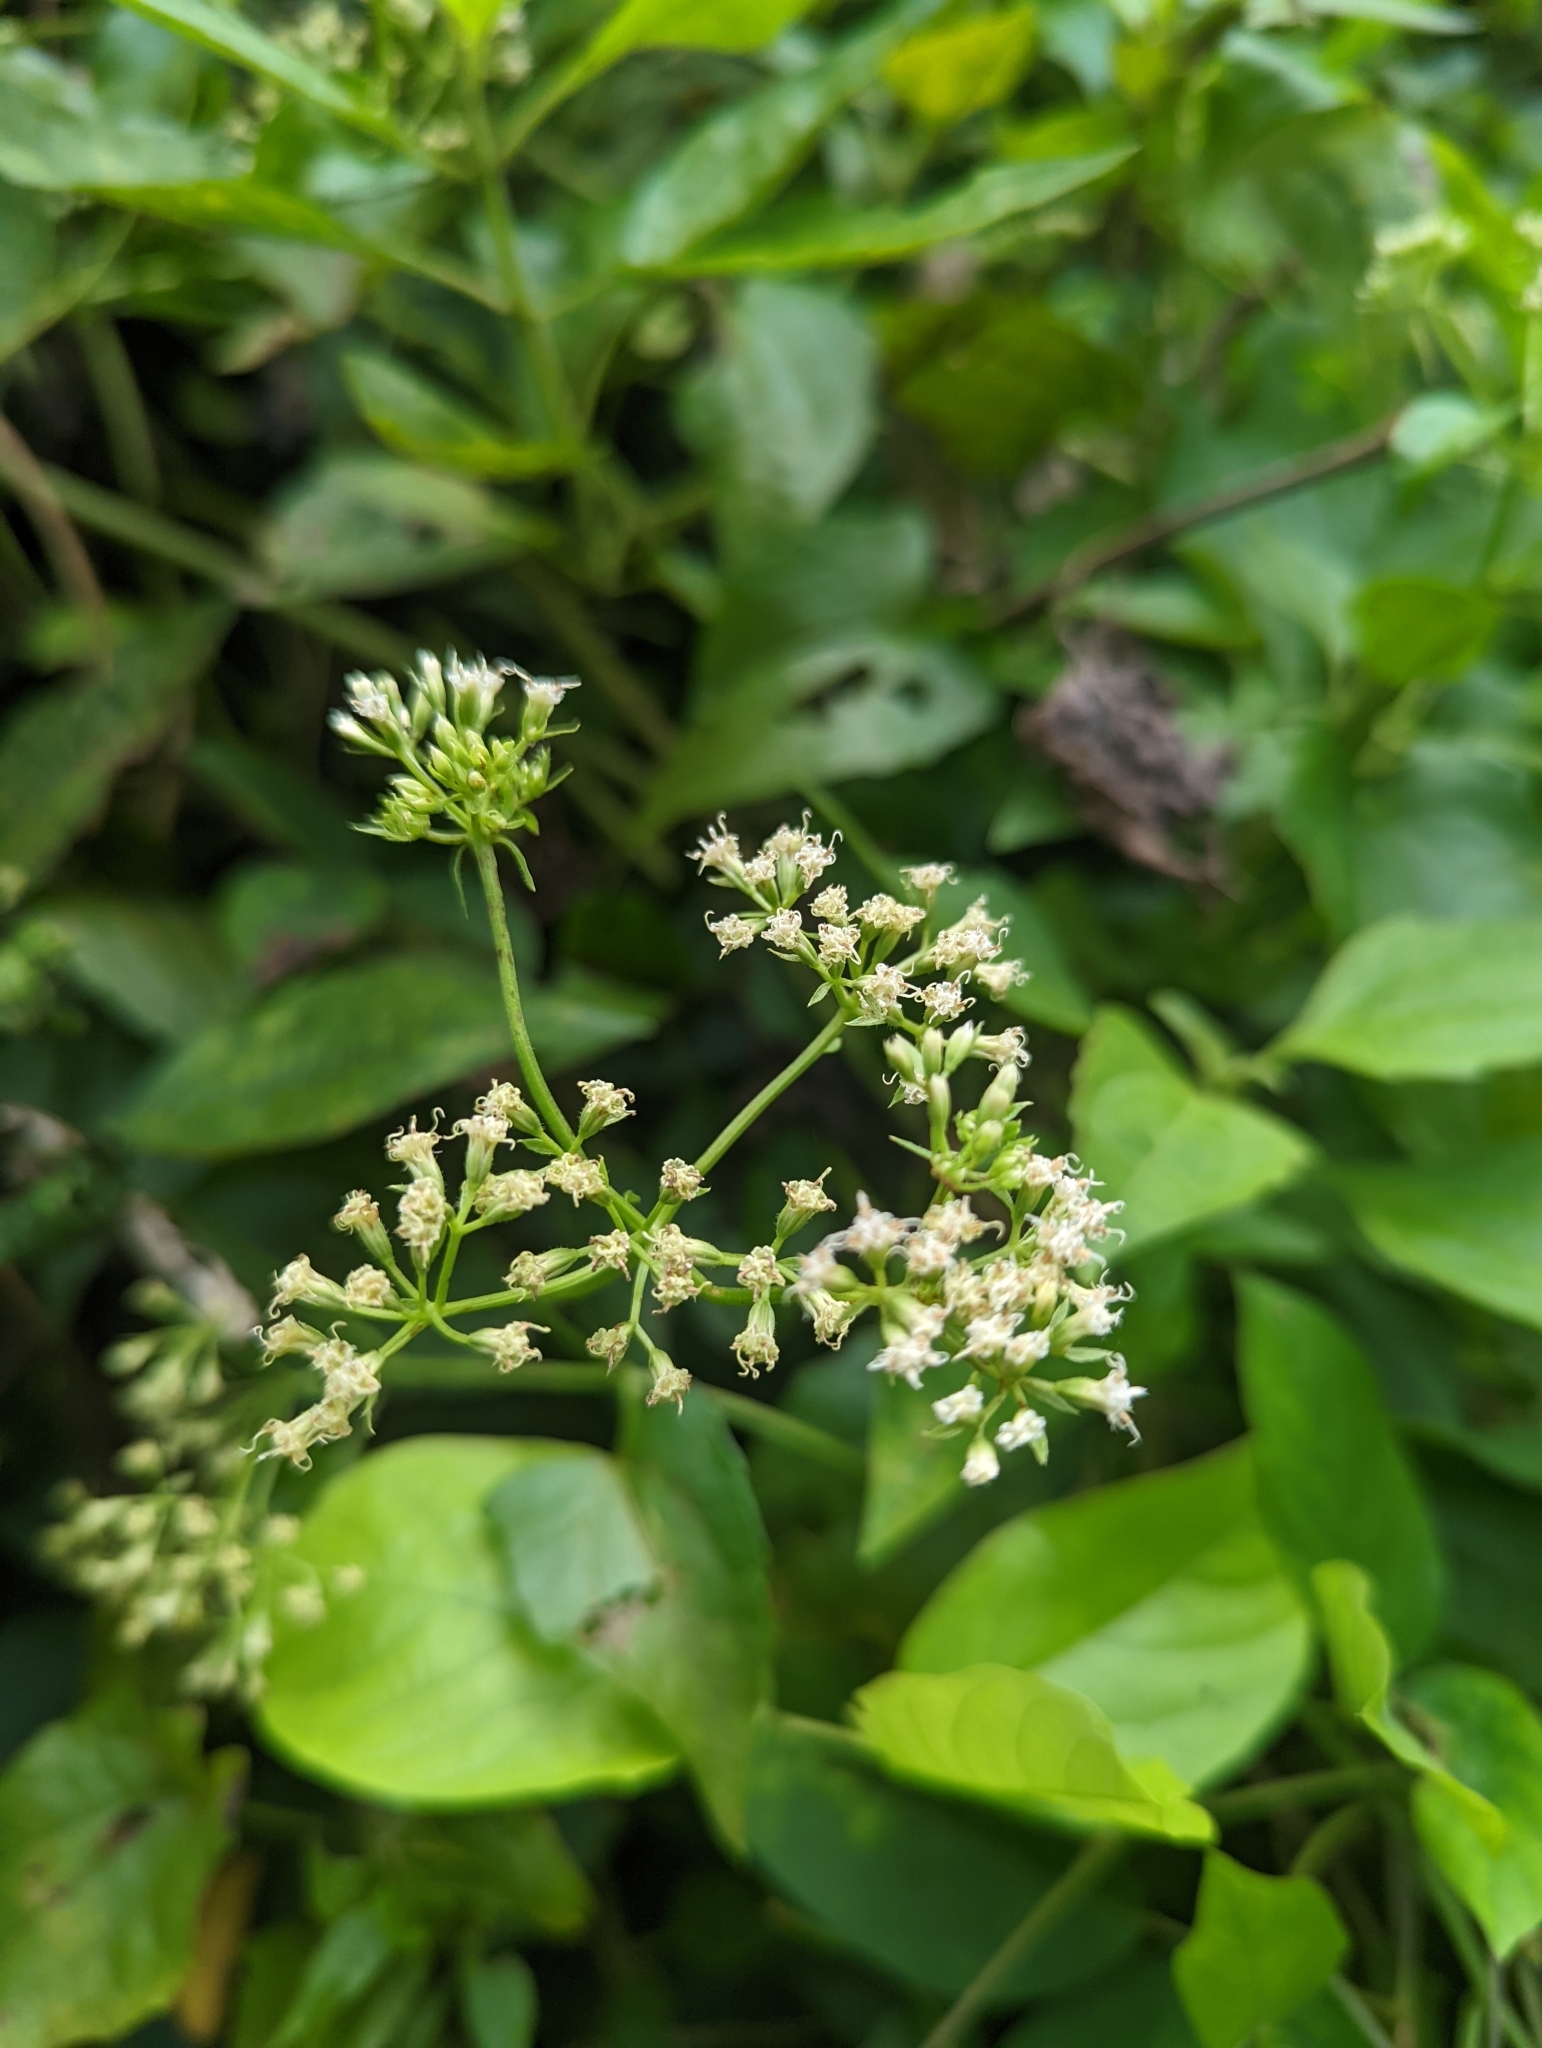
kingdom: Plantae
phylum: Tracheophyta
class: Magnoliopsida
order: Asterales
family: Asteraceae
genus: Mikania
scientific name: Mikania micrantha
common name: Mile-a-minute
